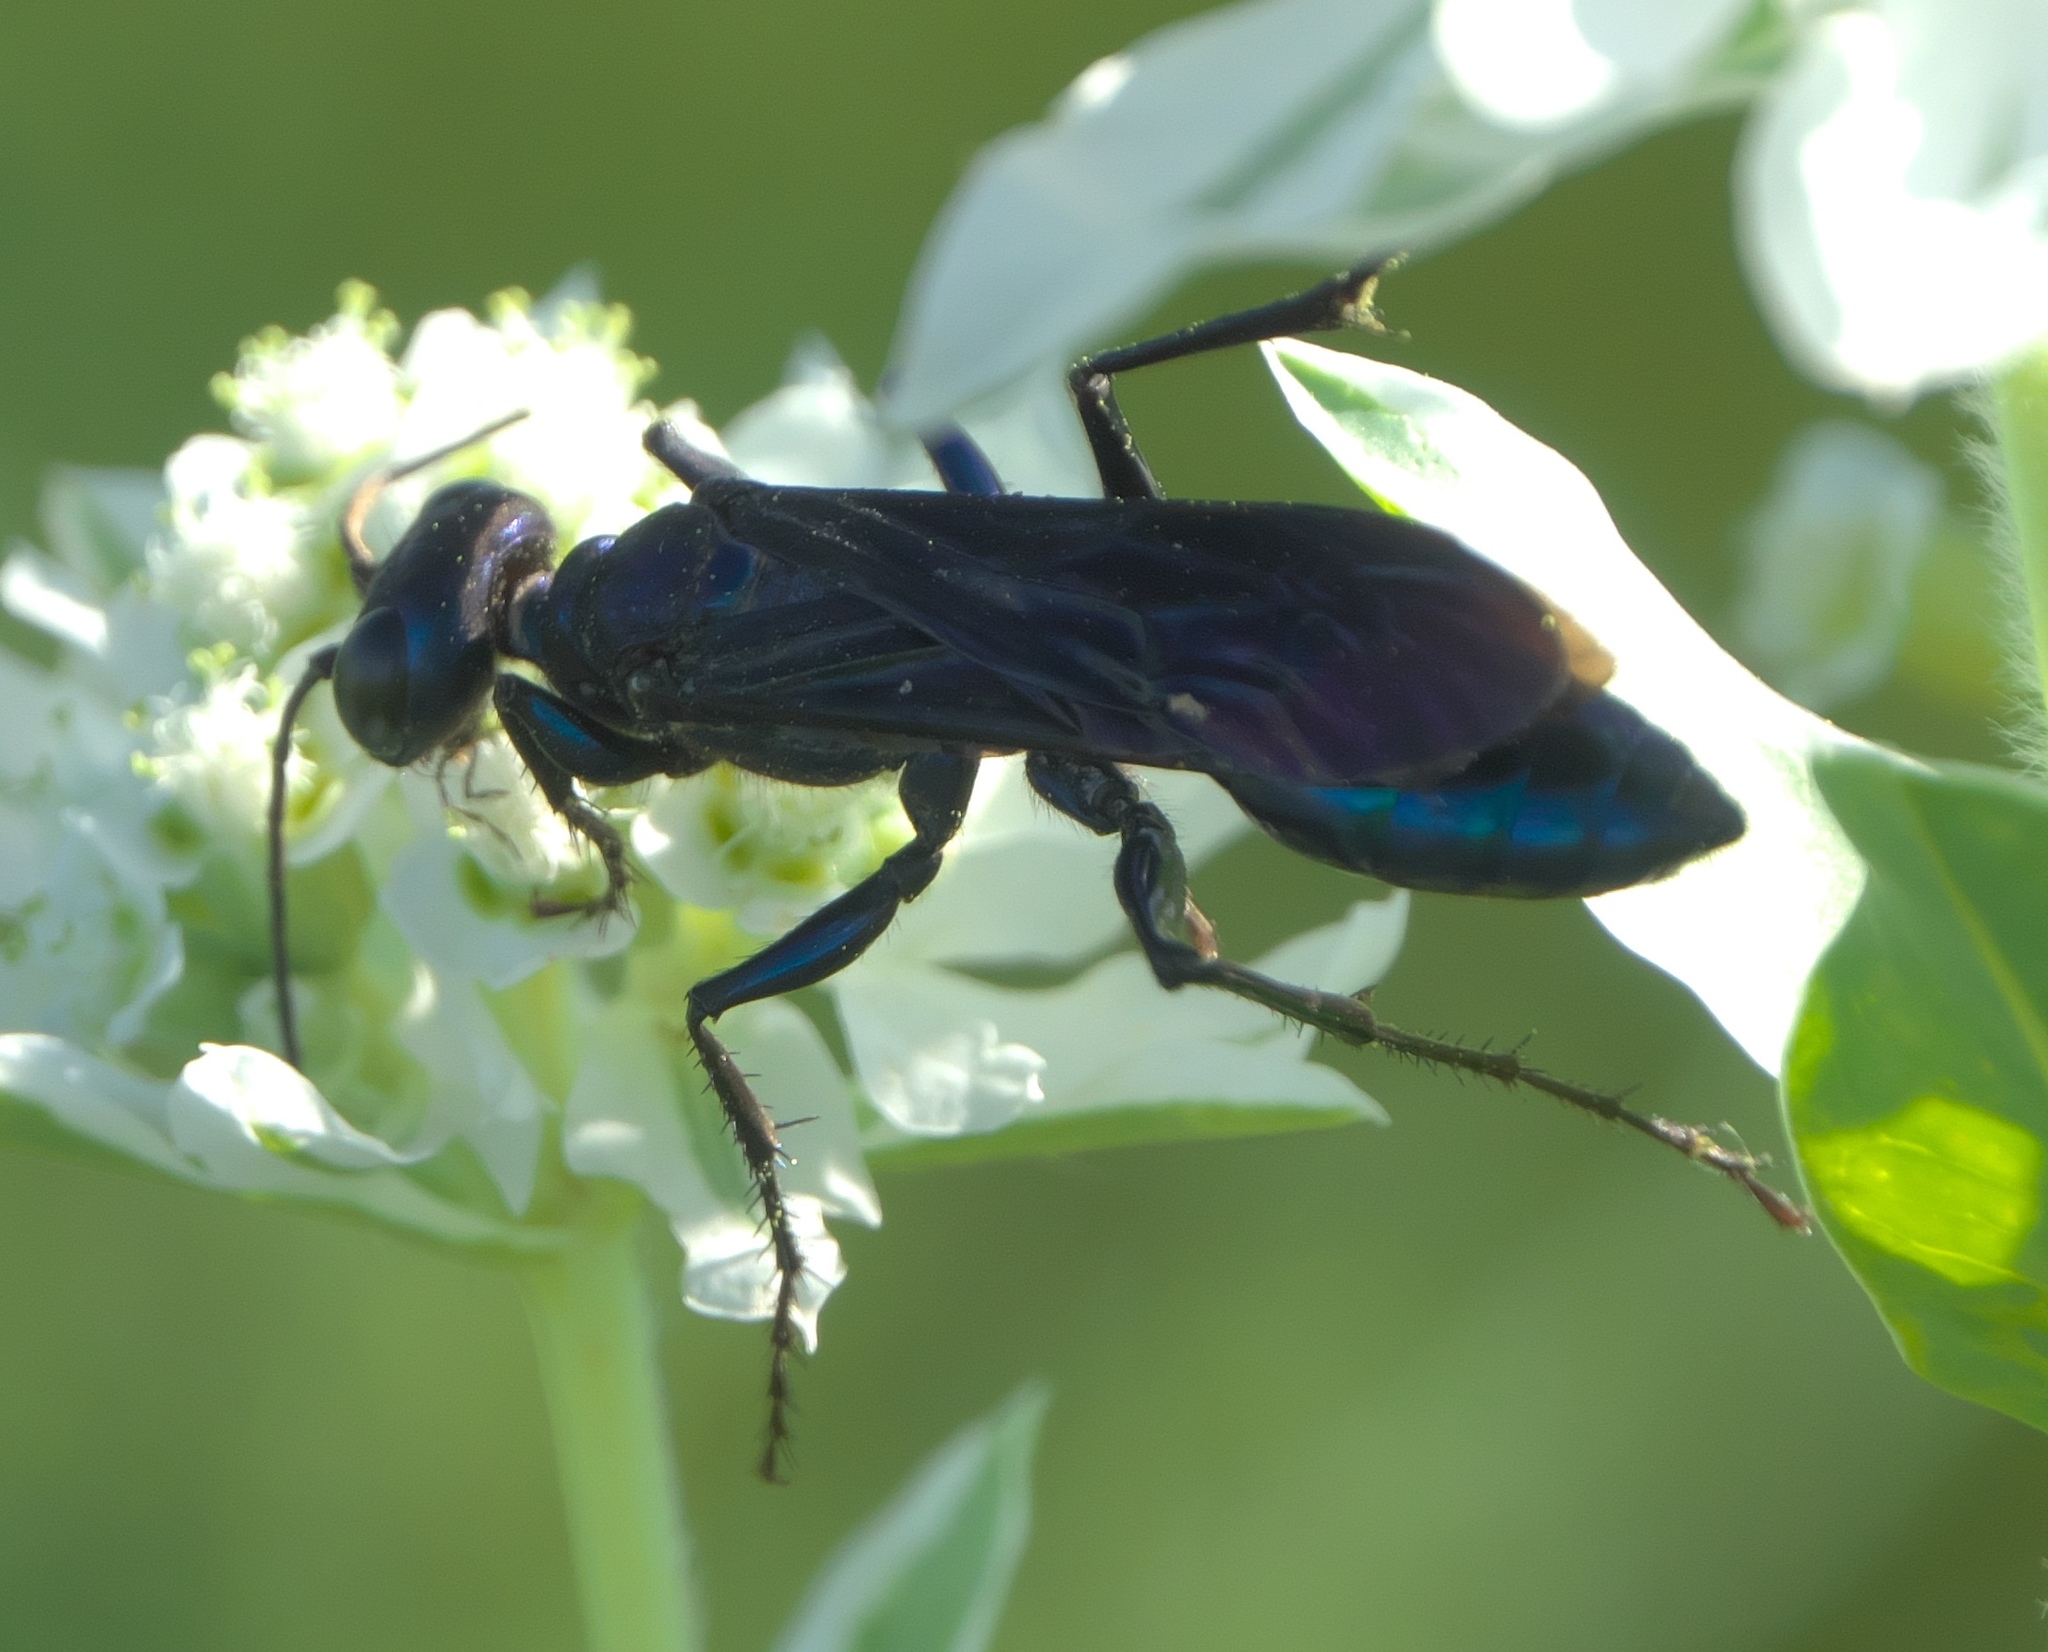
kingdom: Animalia
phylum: Arthropoda
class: Insecta
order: Hymenoptera
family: Sphecidae
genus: Chlorion
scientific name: Chlorion aerarium
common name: Steel-blue cricket hunter
